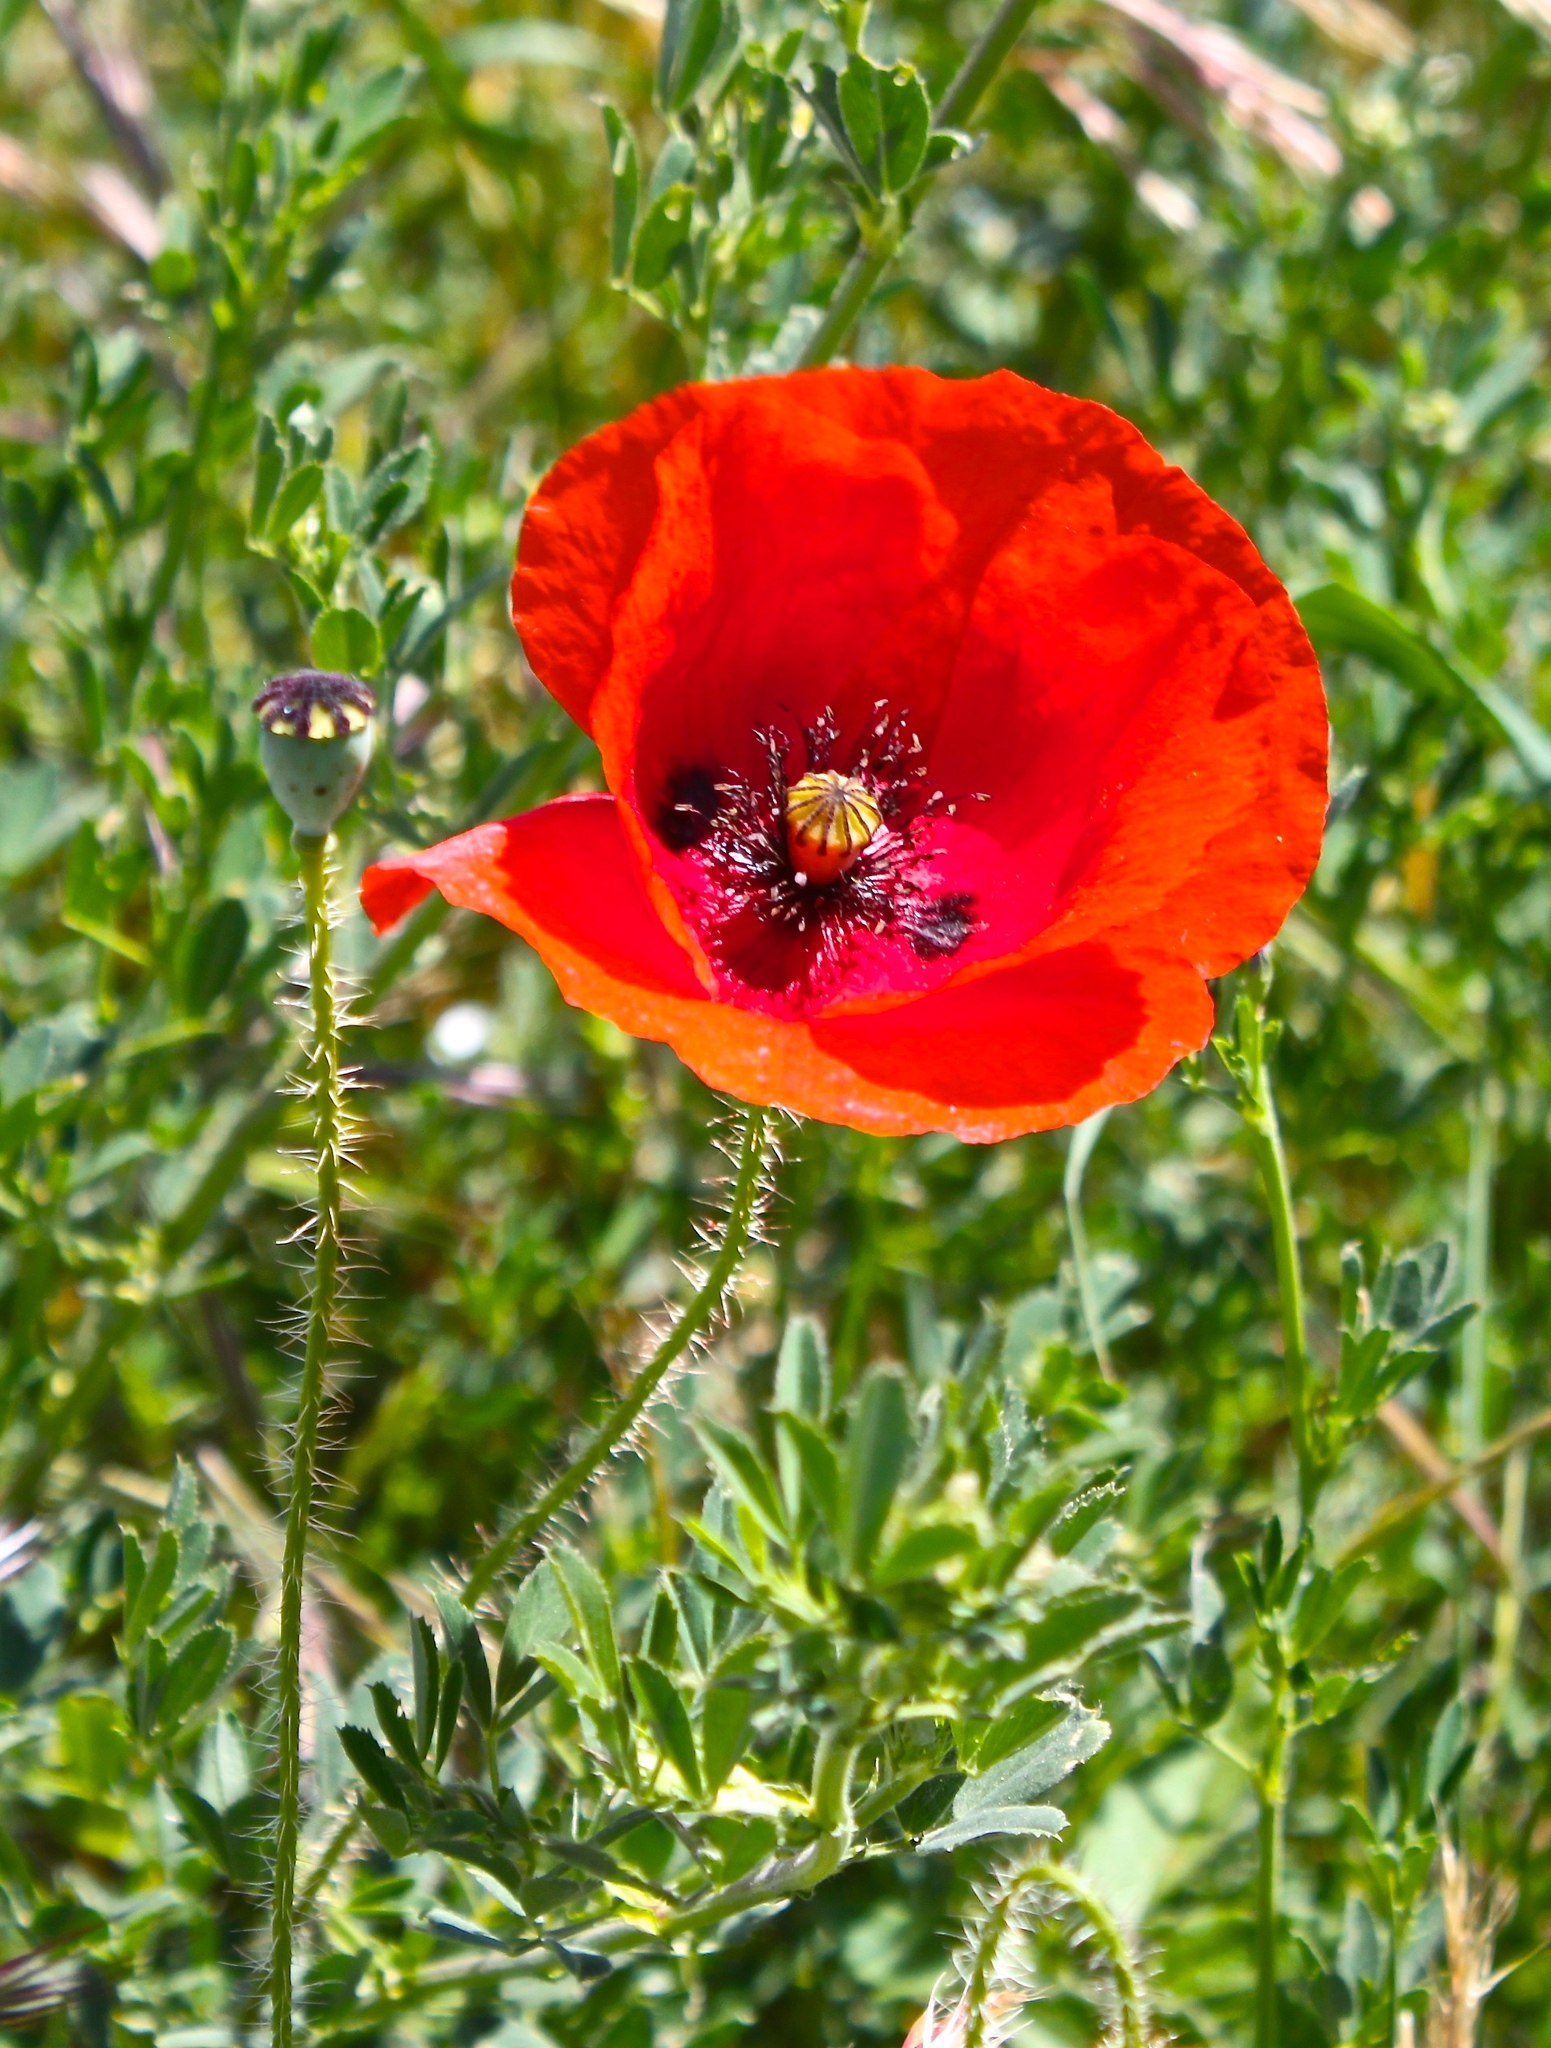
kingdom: Plantae
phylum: Tracheophyta
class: Magnoliopsida
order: Ranunculales
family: Papaveraceae
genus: Papaver
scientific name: Papaver rhoeas
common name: Corn poppy
